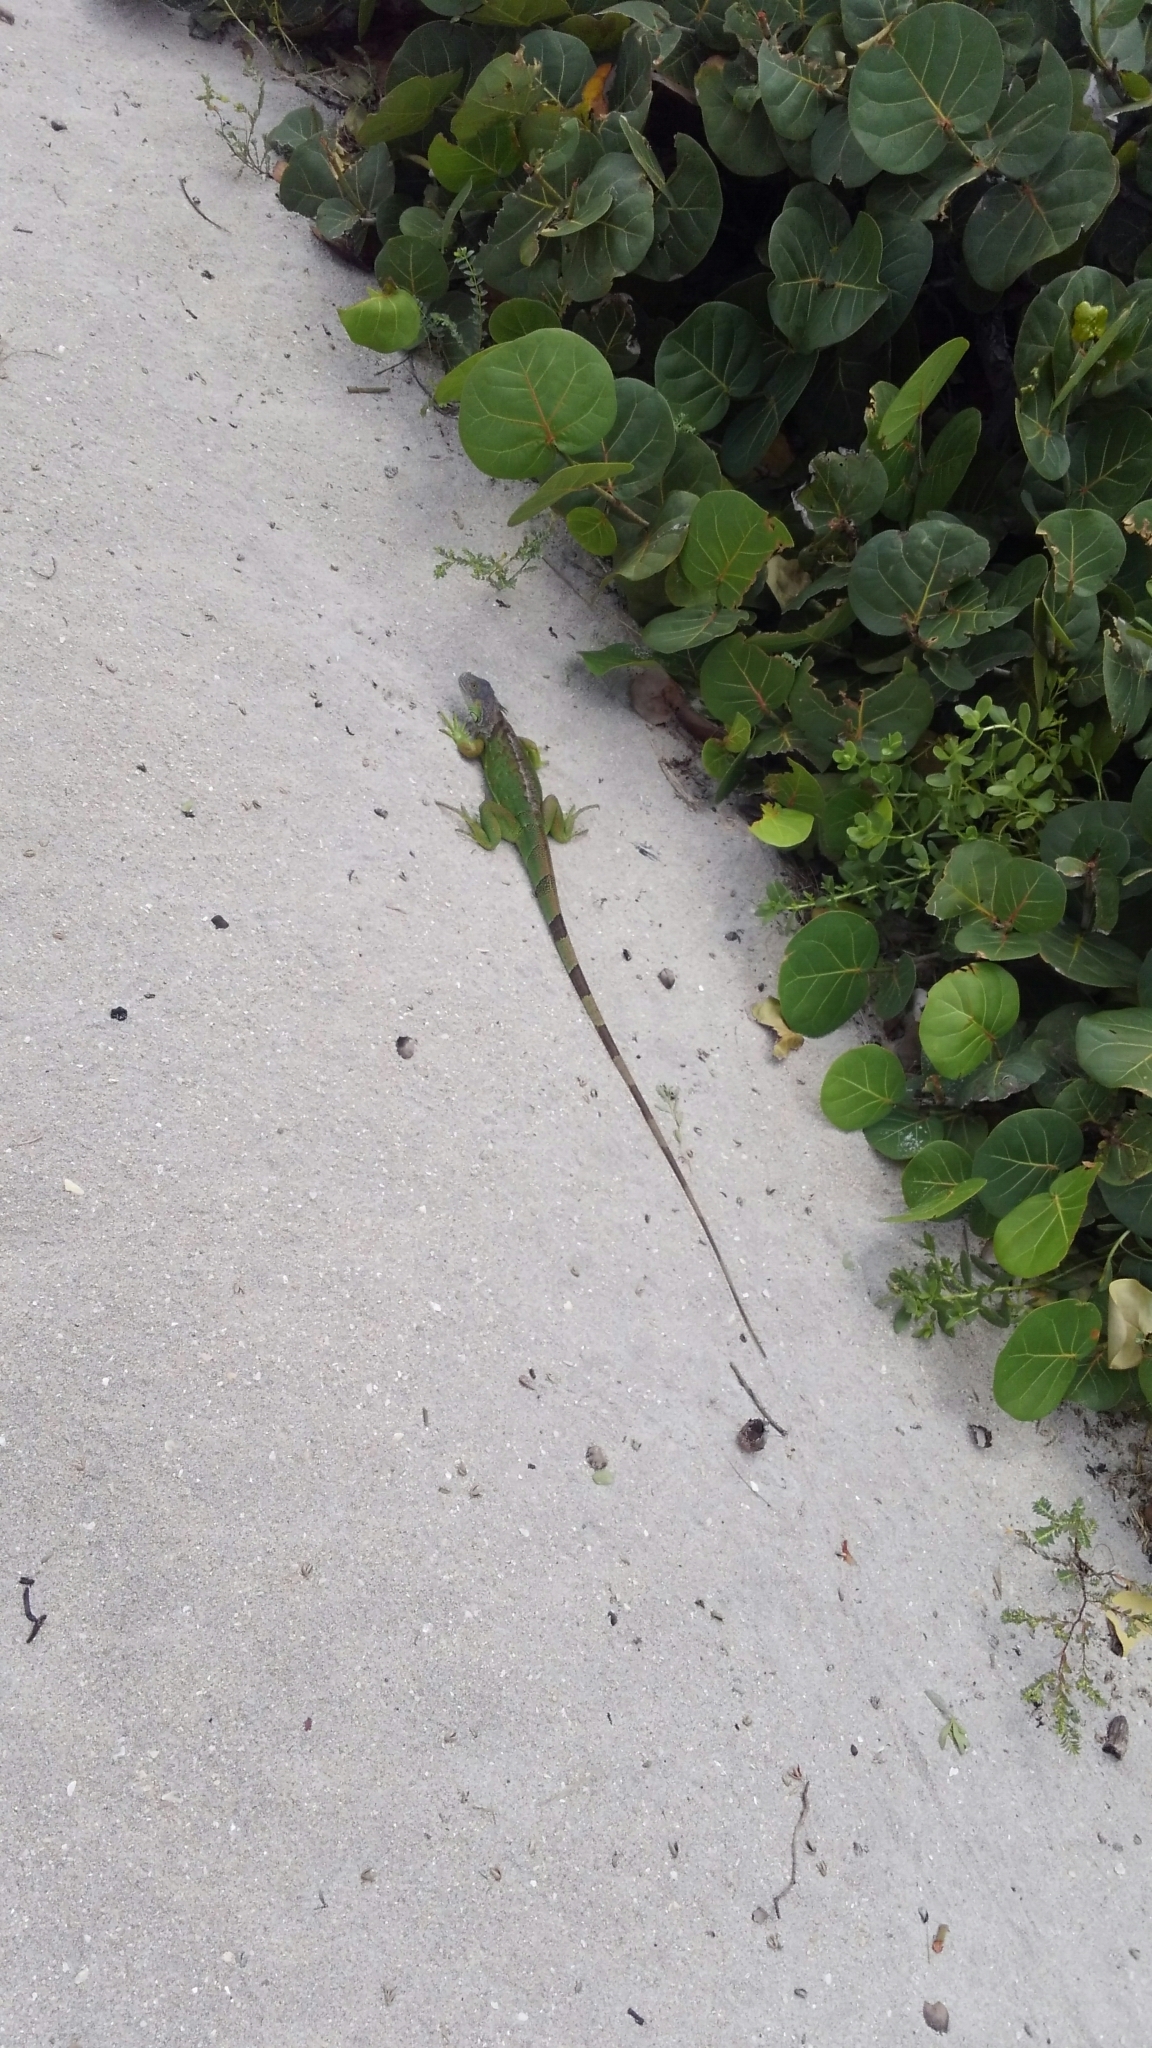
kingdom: Animalia
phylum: Chordata
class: Squamata
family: Iguanidae
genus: Iguana
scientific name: Iguana iguana
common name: Green iguana
